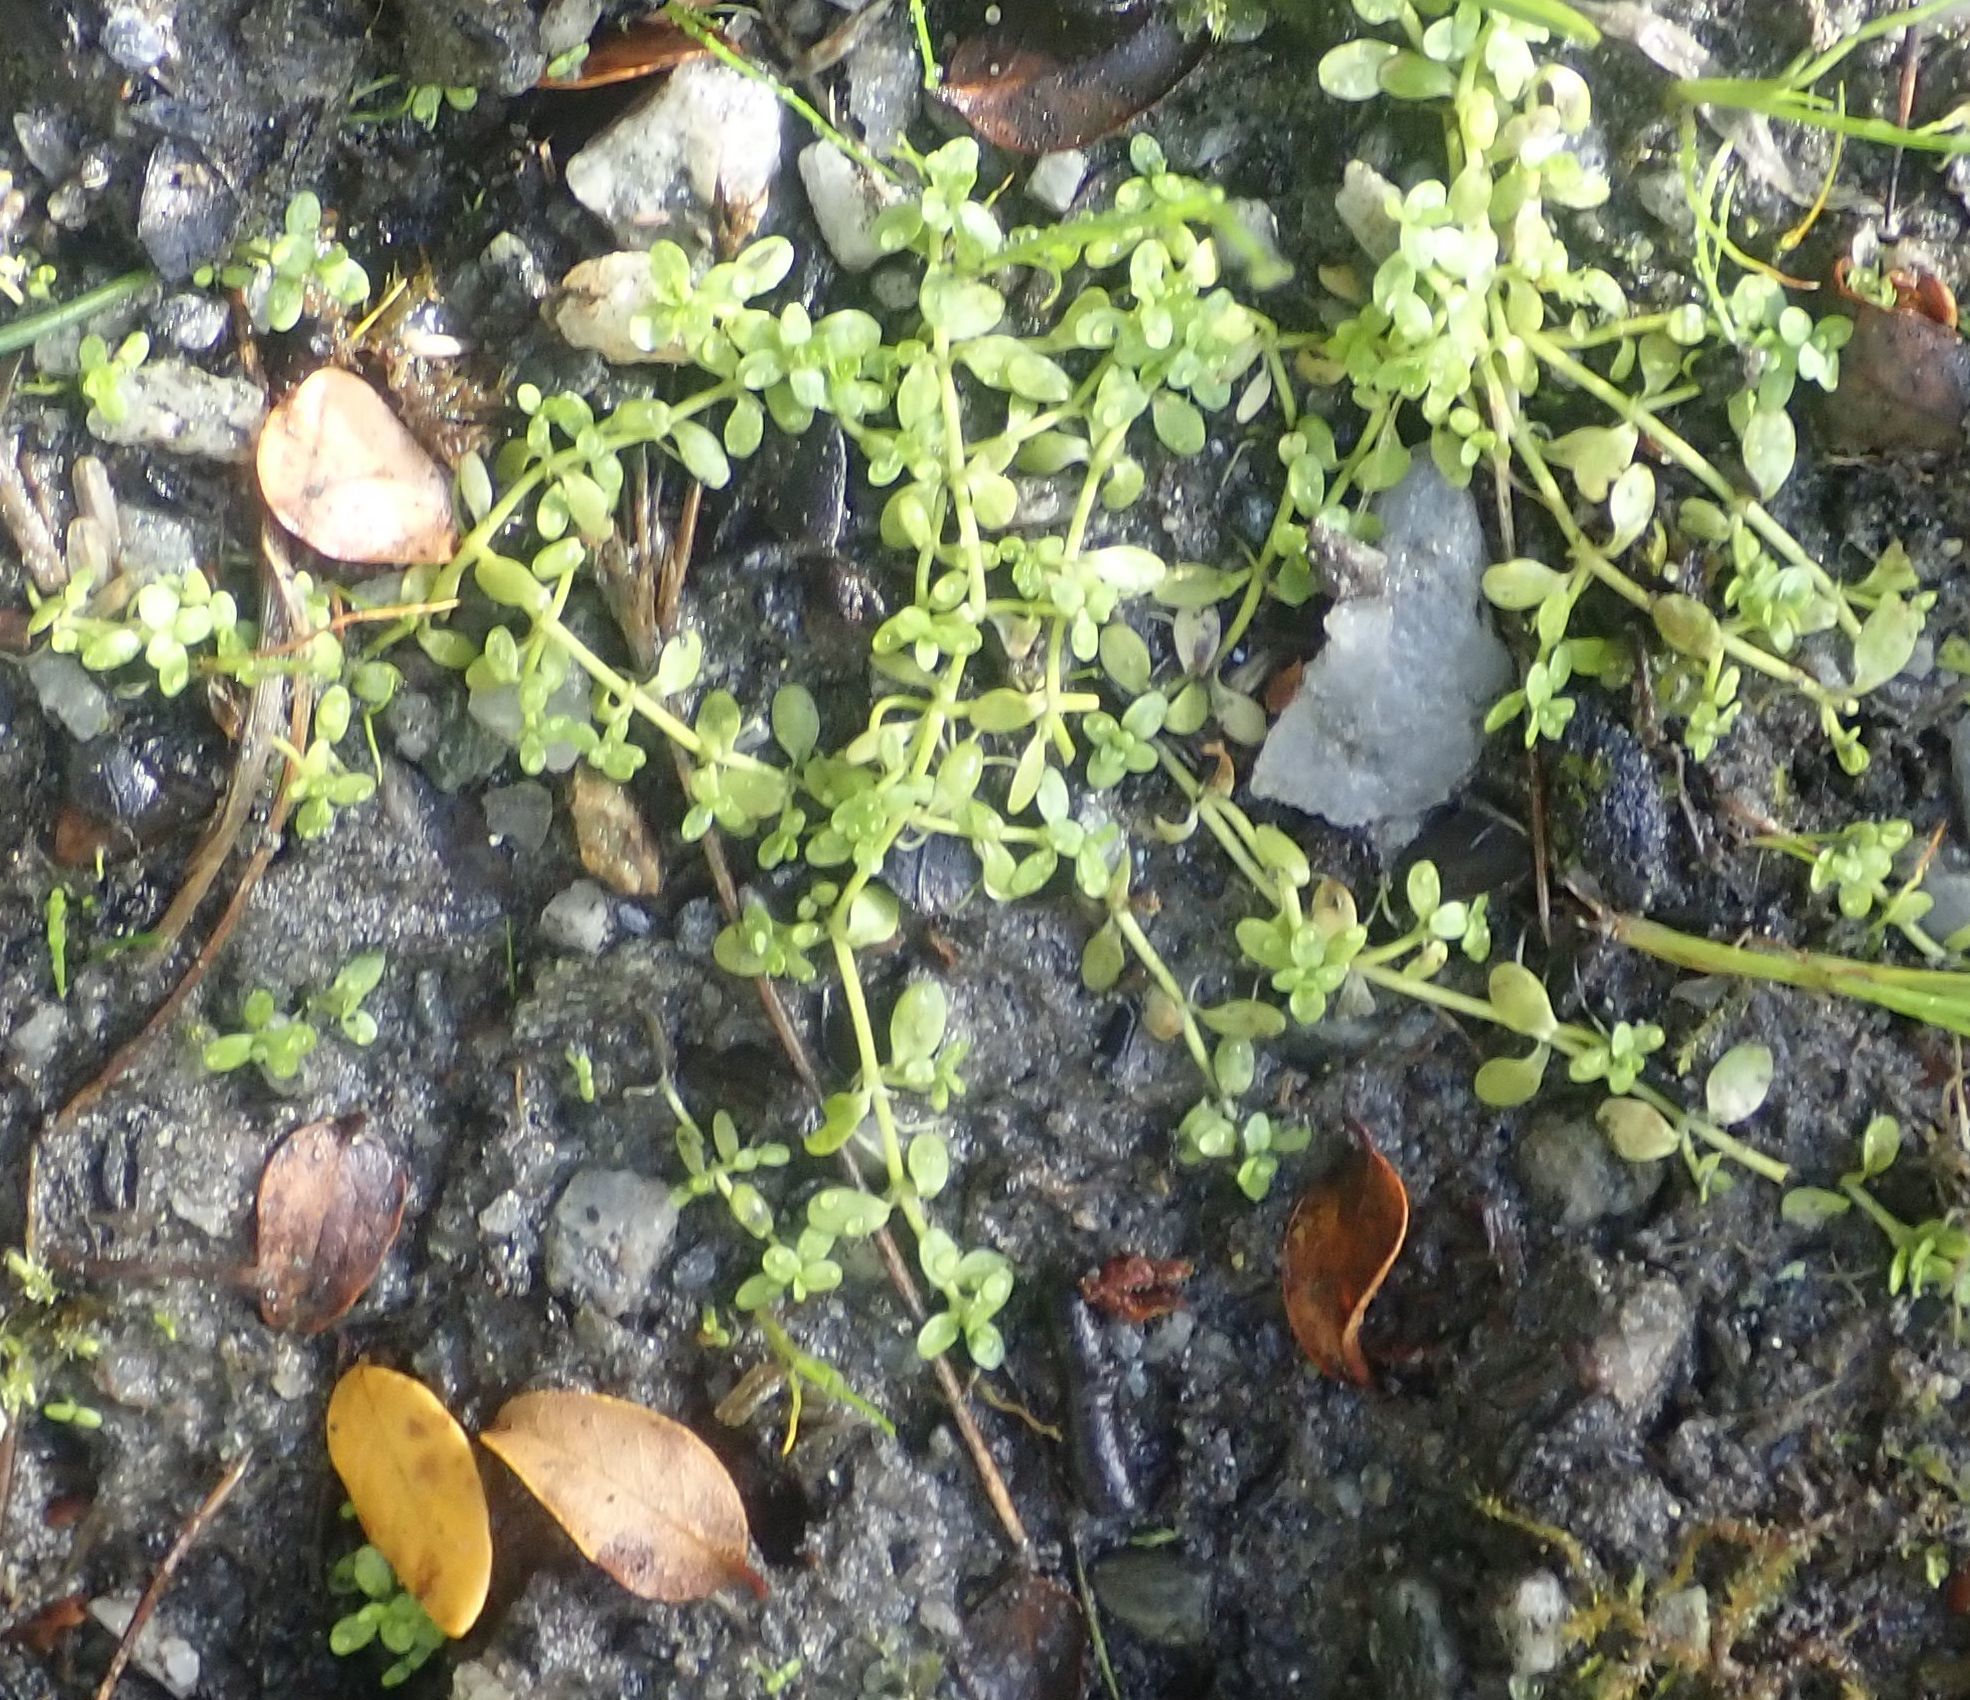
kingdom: Plantae
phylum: Tracheophyta
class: Magnoliopsida
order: Lamiales
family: Plantaginaceae
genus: Callitriche
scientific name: Callitriche stagnalis
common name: Common water-starwort
